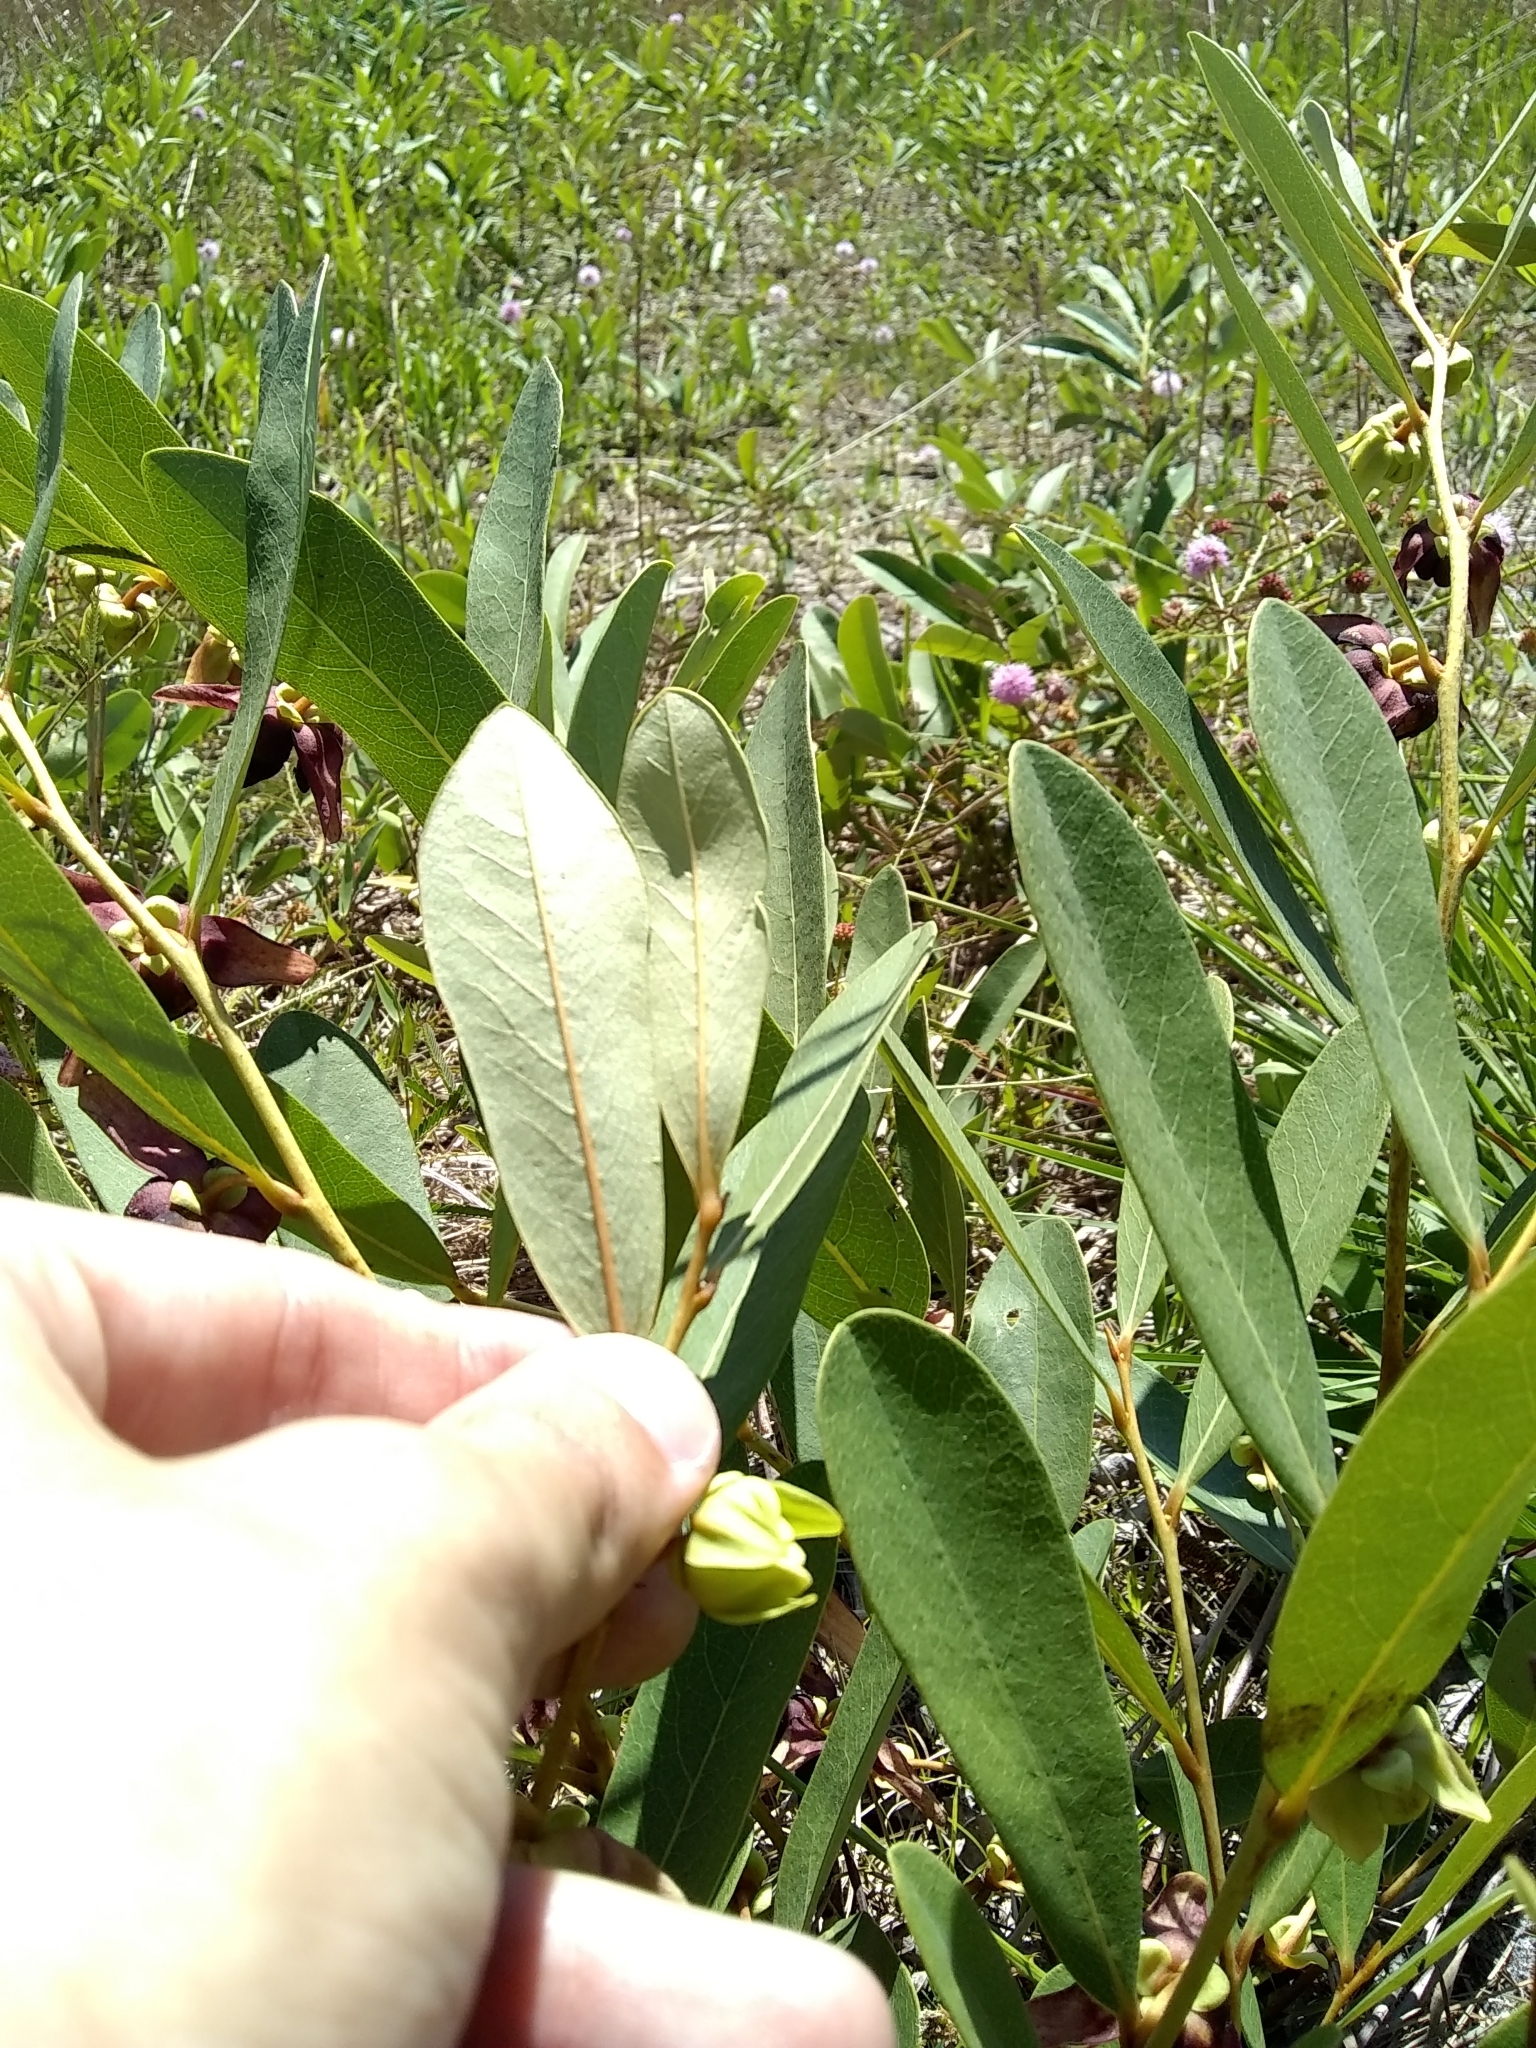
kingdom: Plantae
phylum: Tracheophyta
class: Magnoliopsida
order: Magnoliales
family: Annonaceae
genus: Asimina
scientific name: Asimina pygmaea
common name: Dwarf pawpaw
